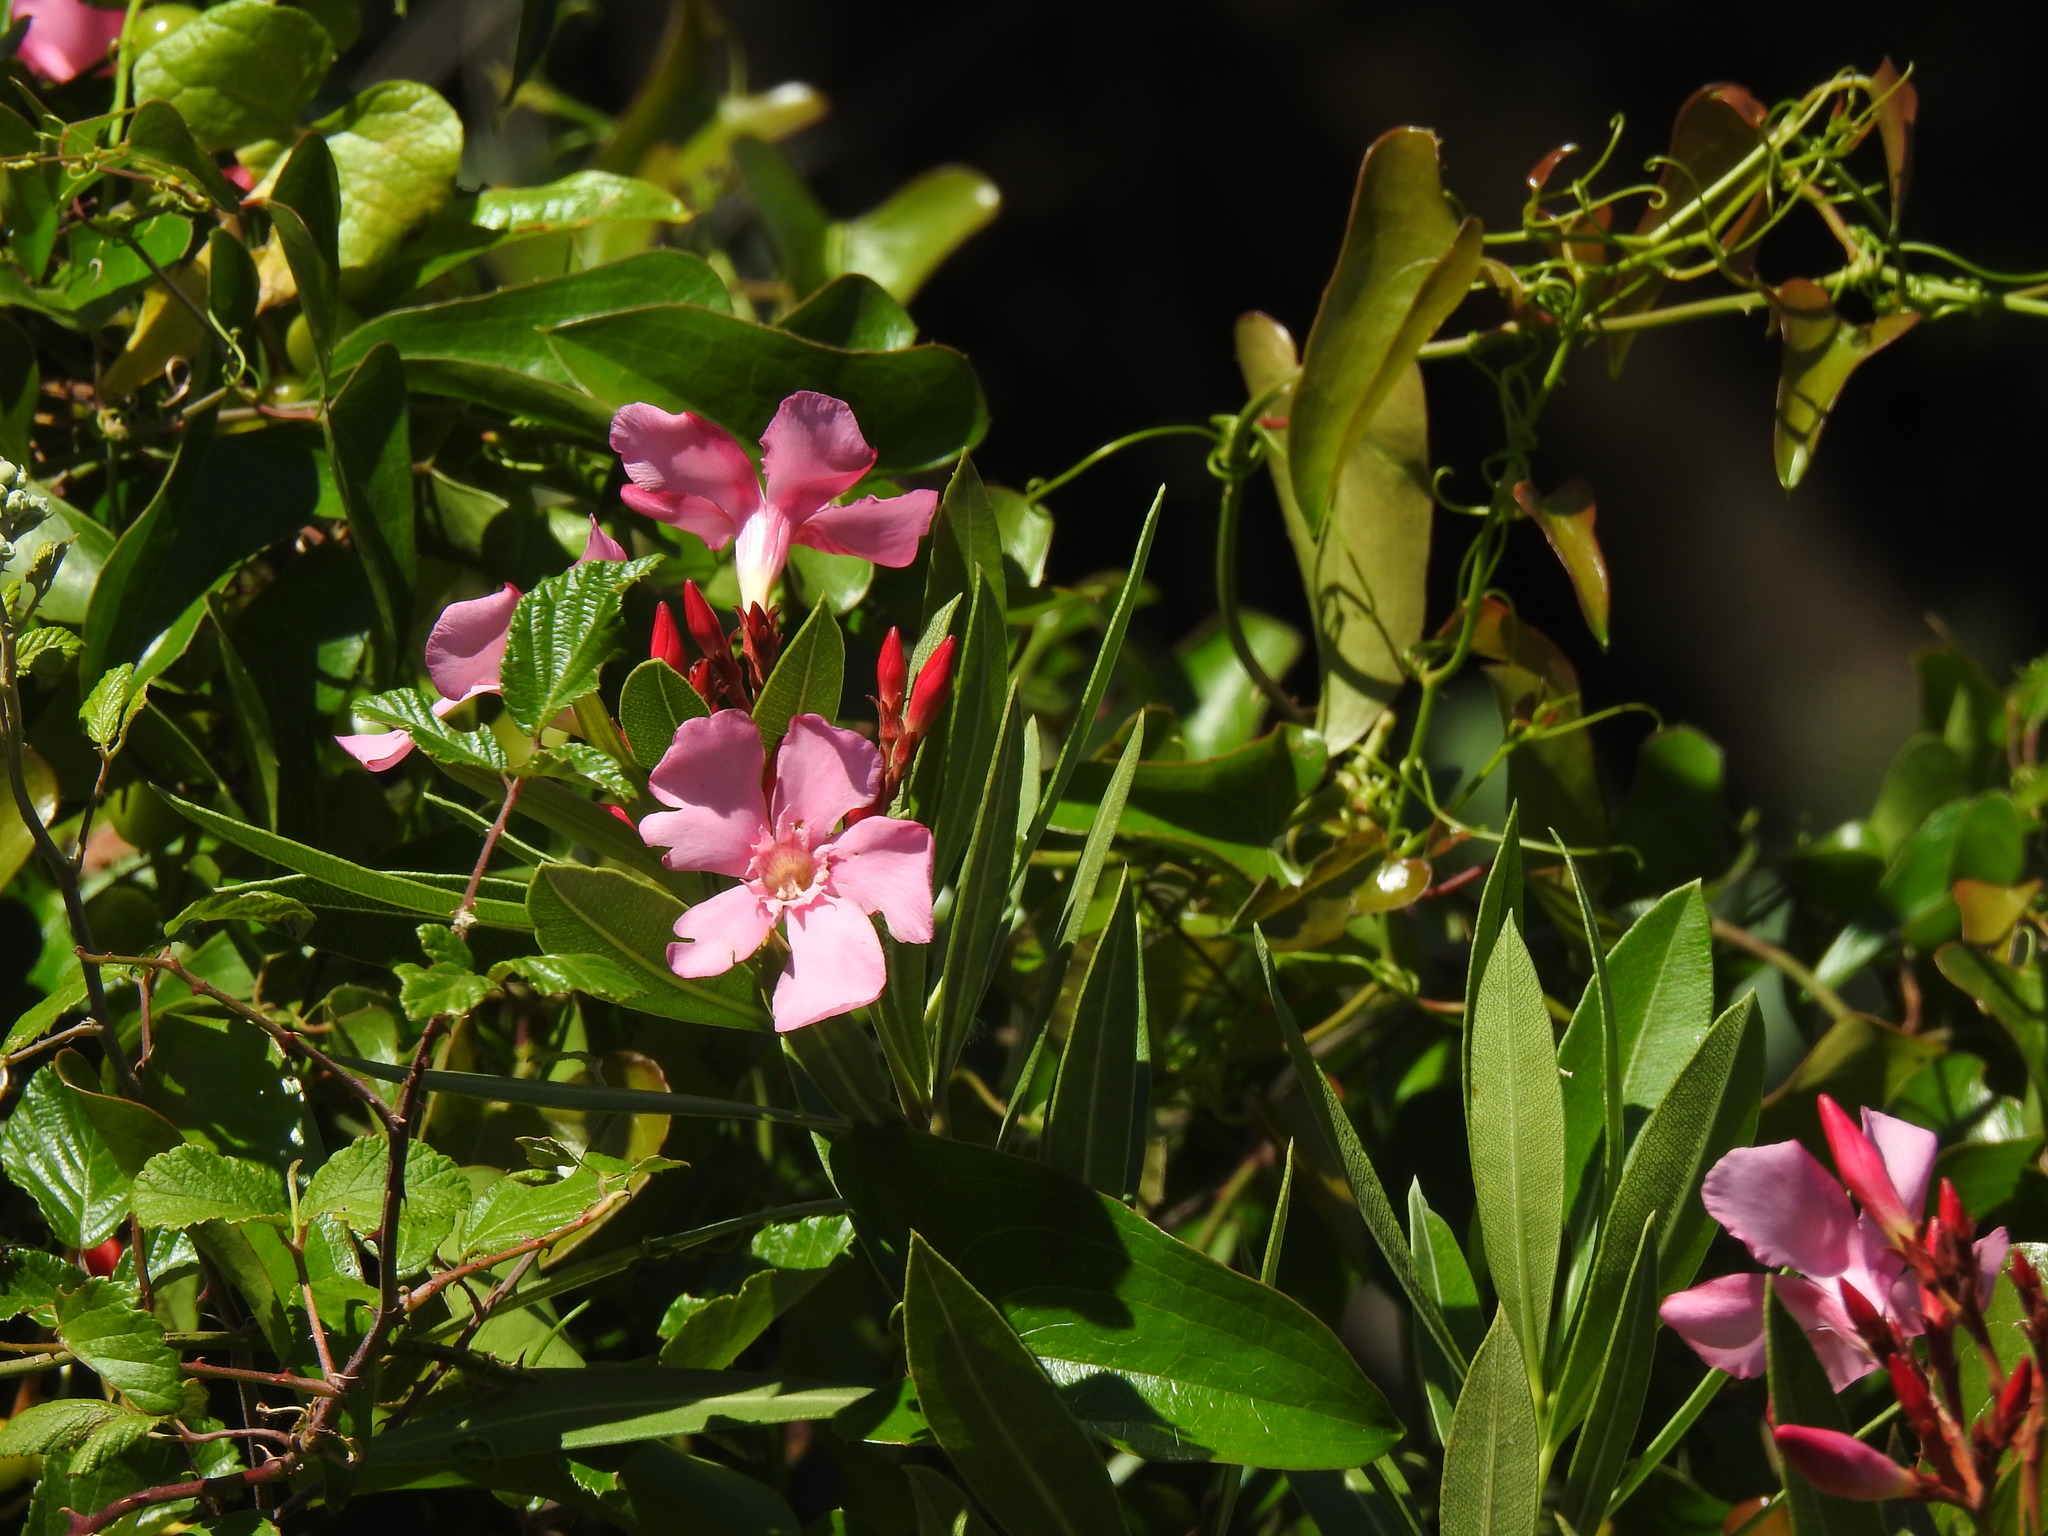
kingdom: Plantae
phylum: Tracheophyta
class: Magnoliopsida
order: Gentianales
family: Apocynaceae
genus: Nerium
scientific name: Nerium oleander
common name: Oleander
